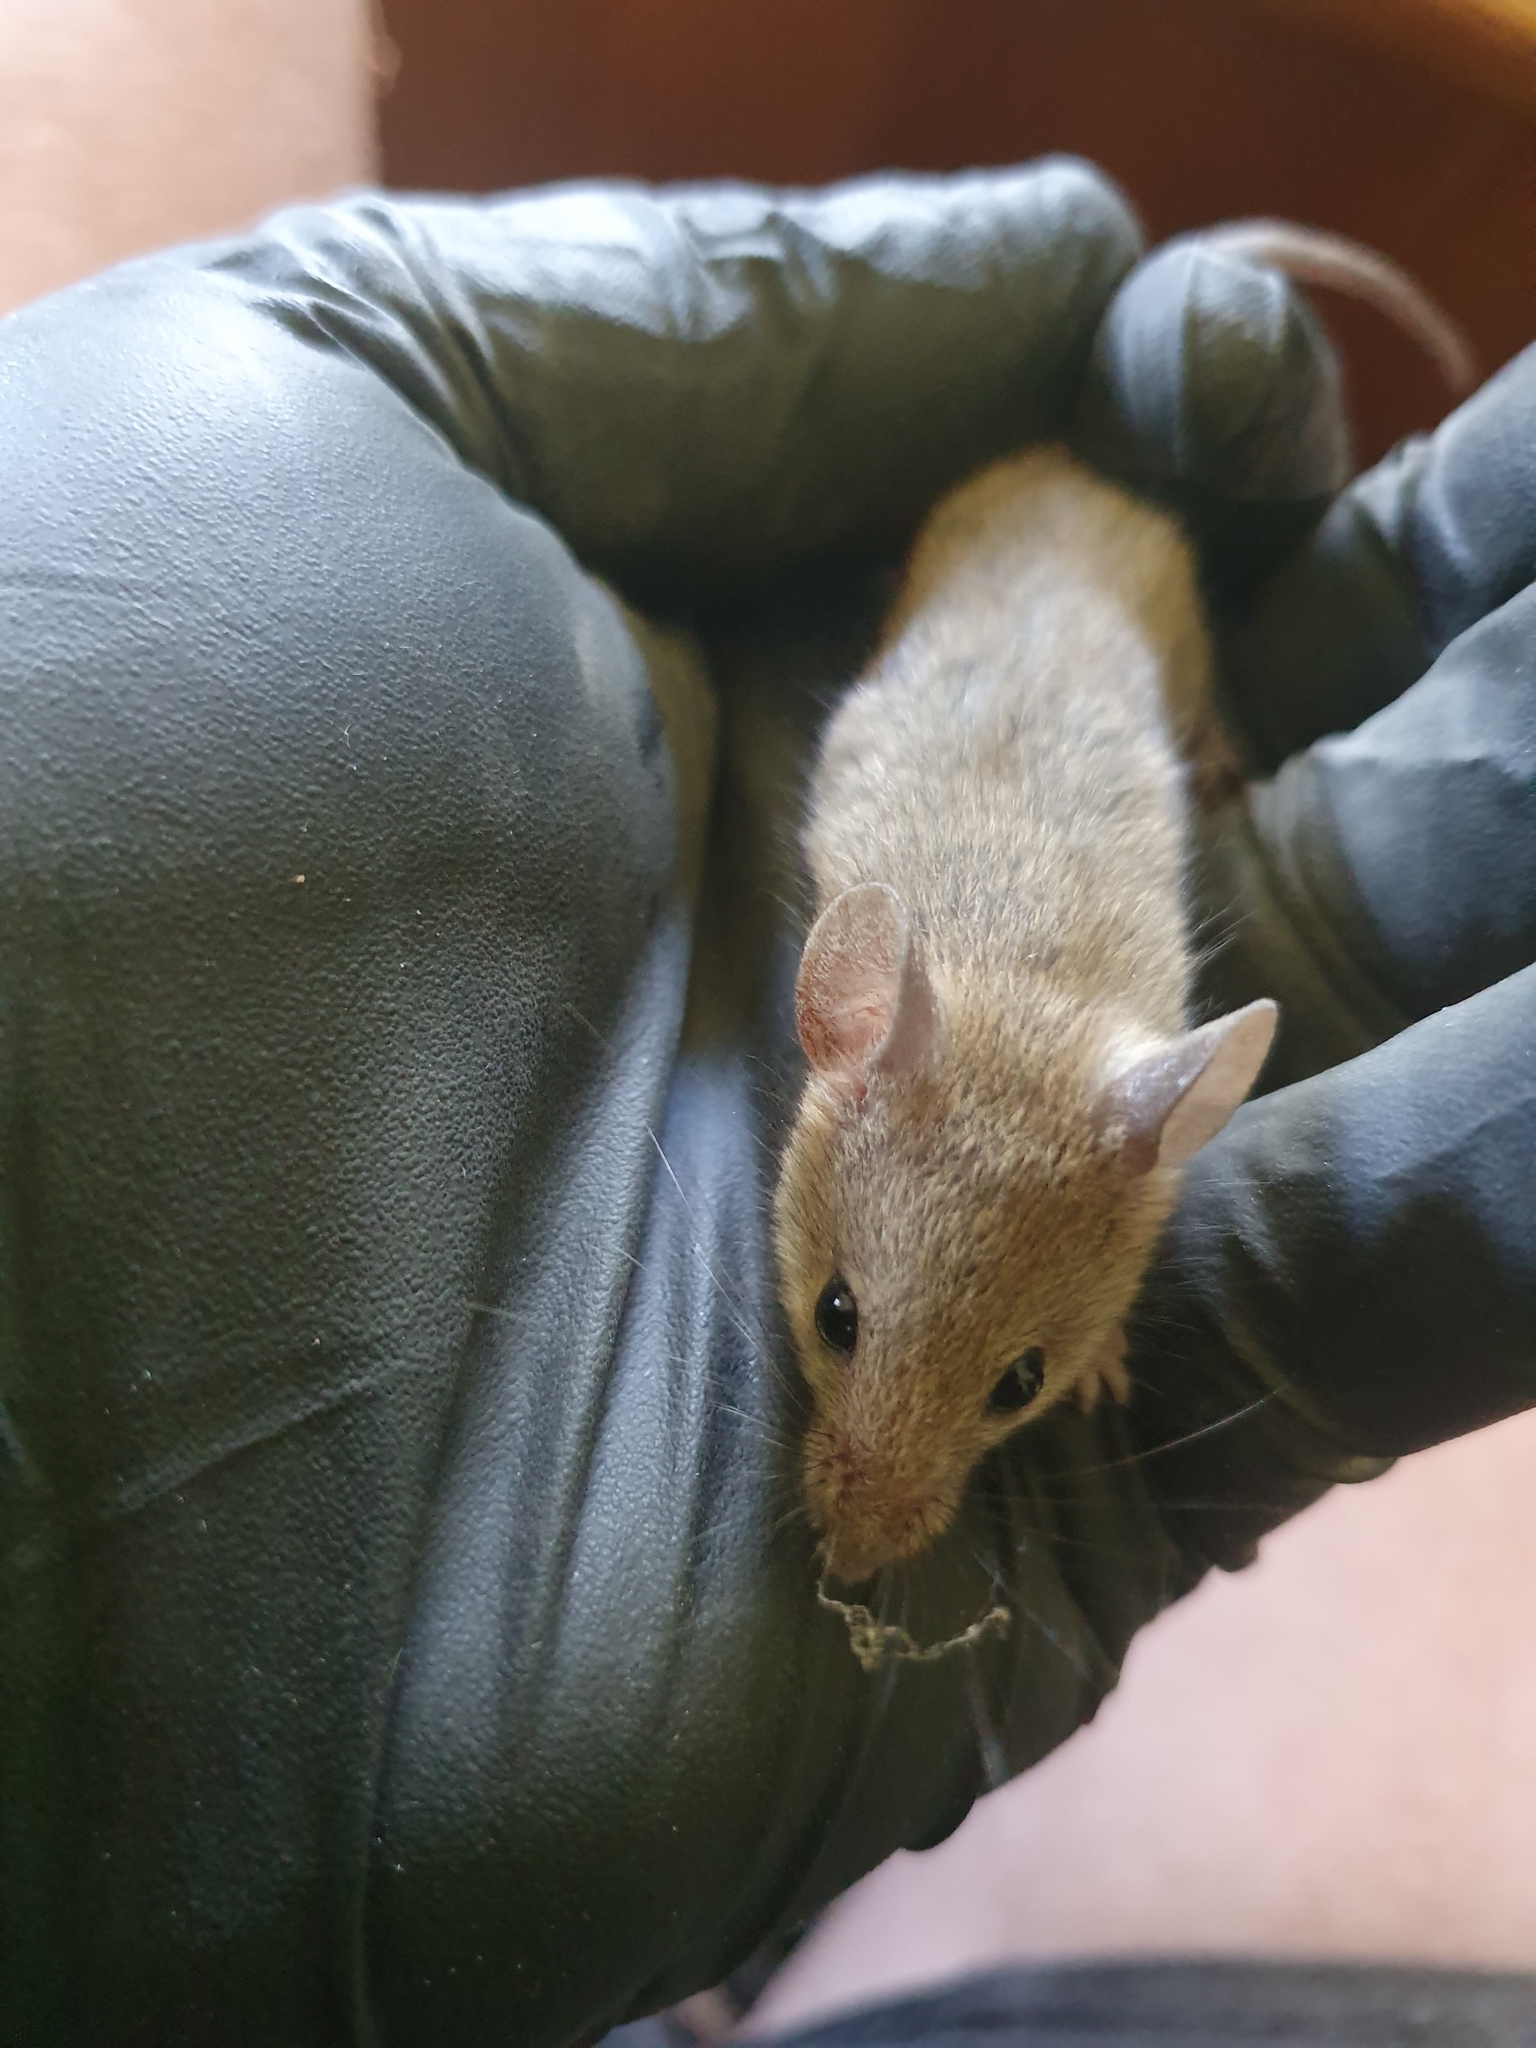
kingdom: Animalia
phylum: Chordata
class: Mammalia
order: Rodentia
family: Muridae
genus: Mus
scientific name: Mus musculus
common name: House mouse
